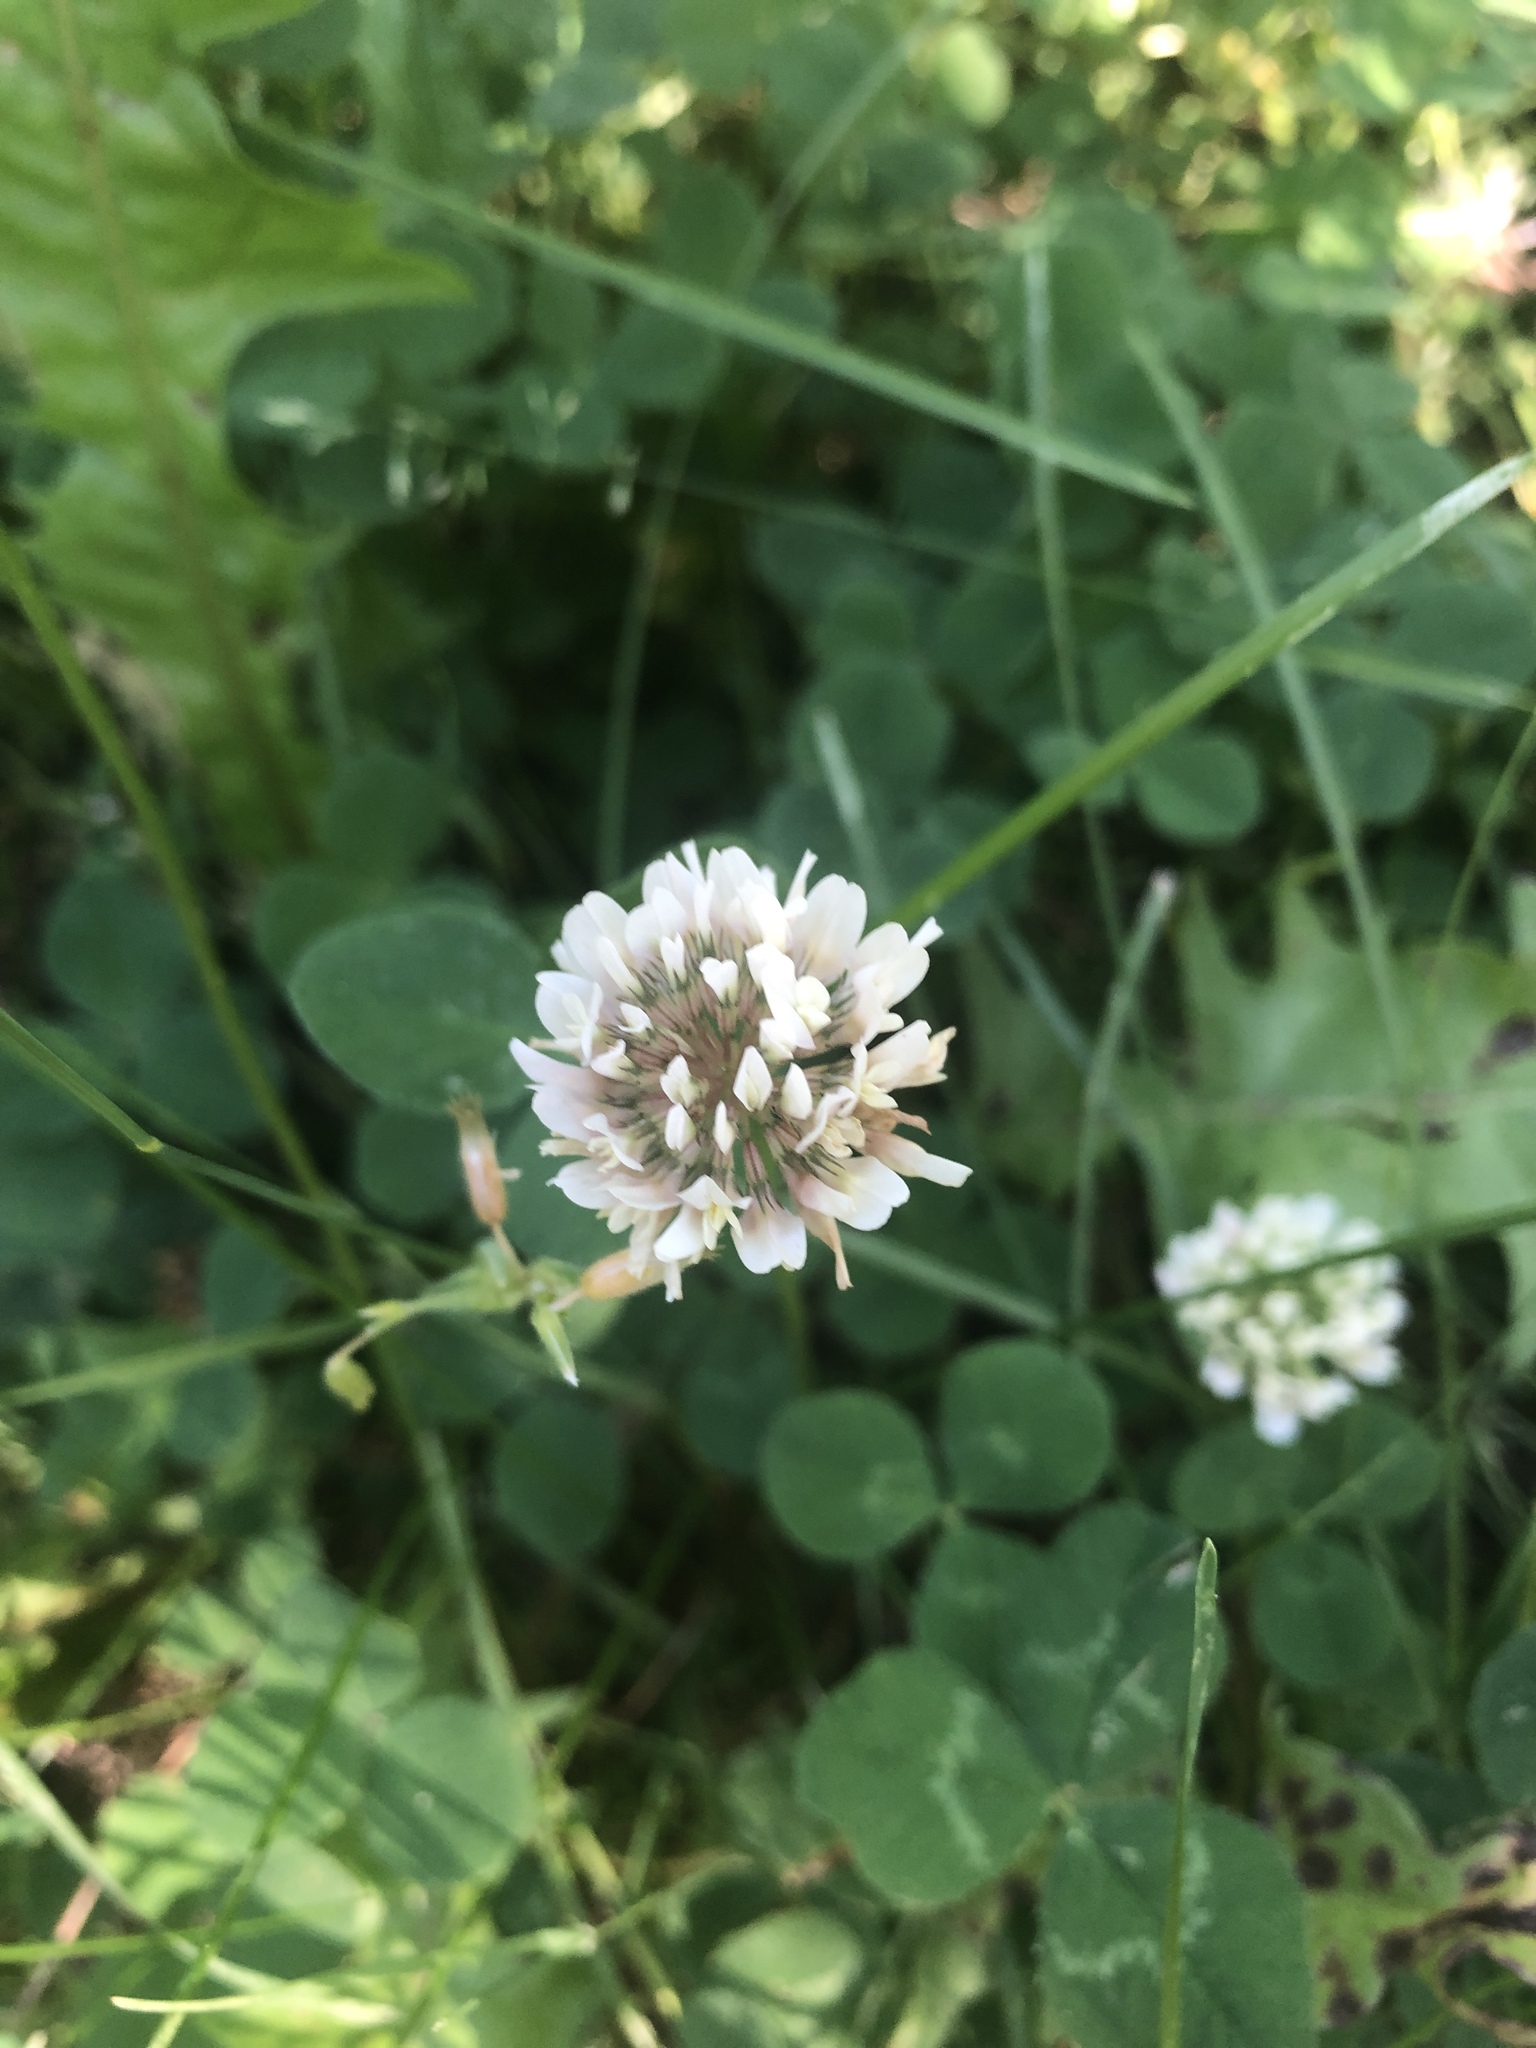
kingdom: Plantae
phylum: Tracheophyta
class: Magnoliopsida
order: Fabales
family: Fabaceae
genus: Trifolium
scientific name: Trifolium repens
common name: White clover
